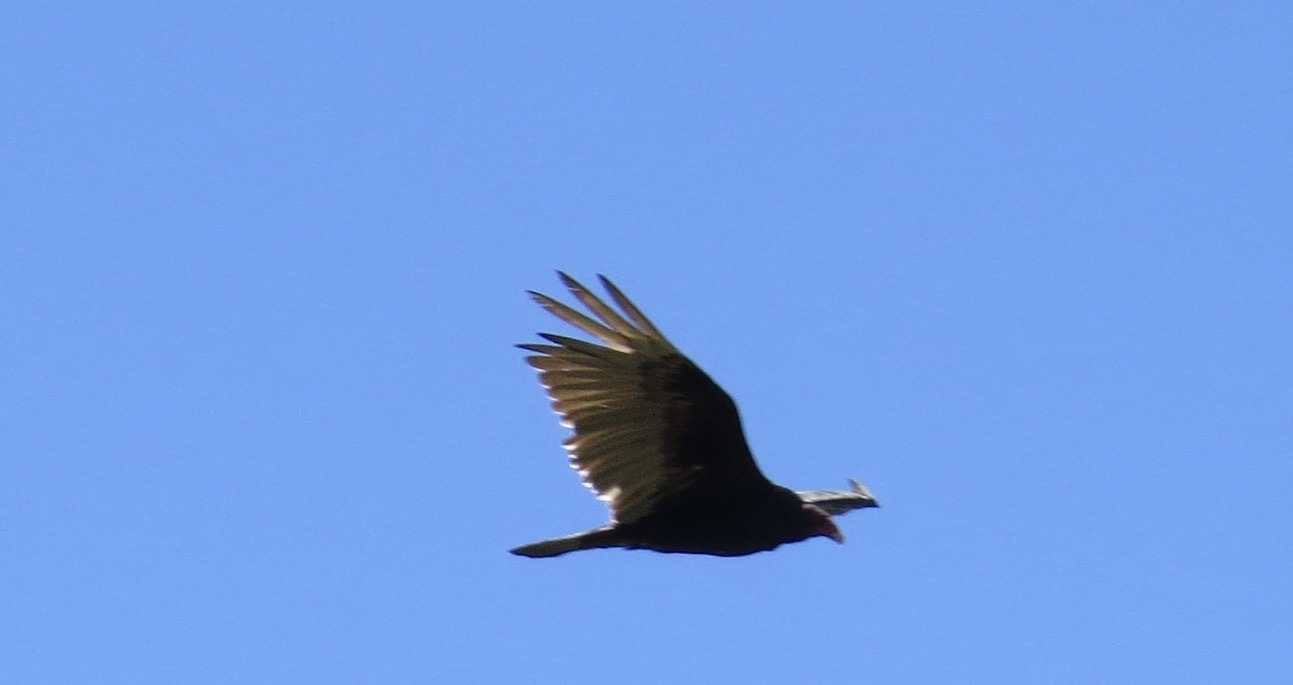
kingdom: Animalia
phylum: Chordata
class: Aves
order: Accipitriformes
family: Cathartidae
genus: Cathartes
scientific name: Cathartes aura
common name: Turkey vulture
